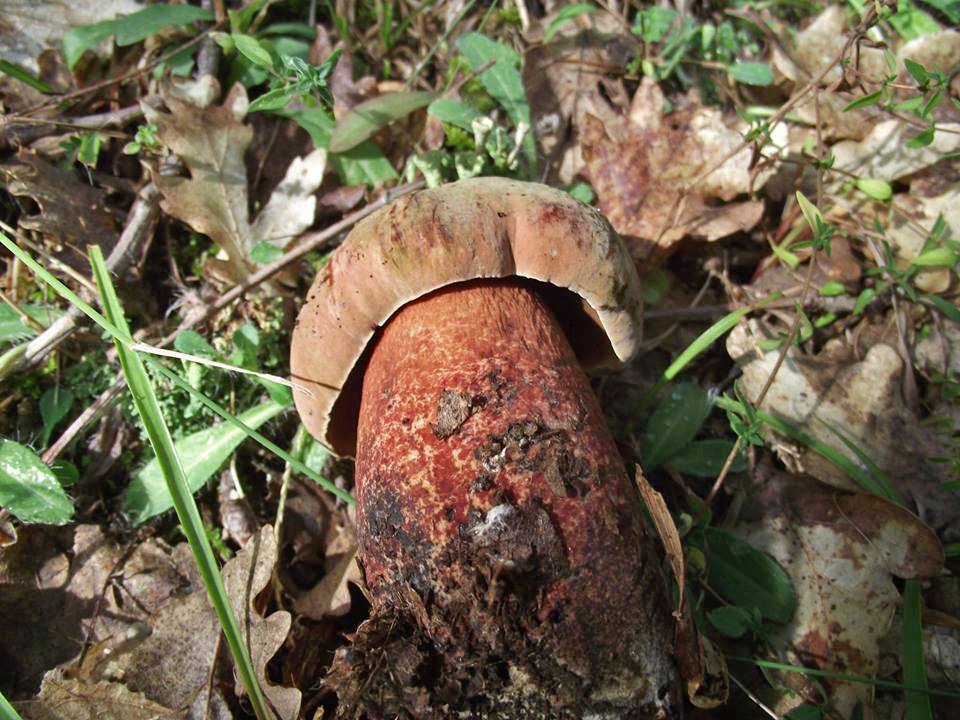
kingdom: Fungi
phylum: Basidiomycota
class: Agaricomycetes
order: Boletales
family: Boletaceae
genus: Suillellus
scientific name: Suillellus mendax
